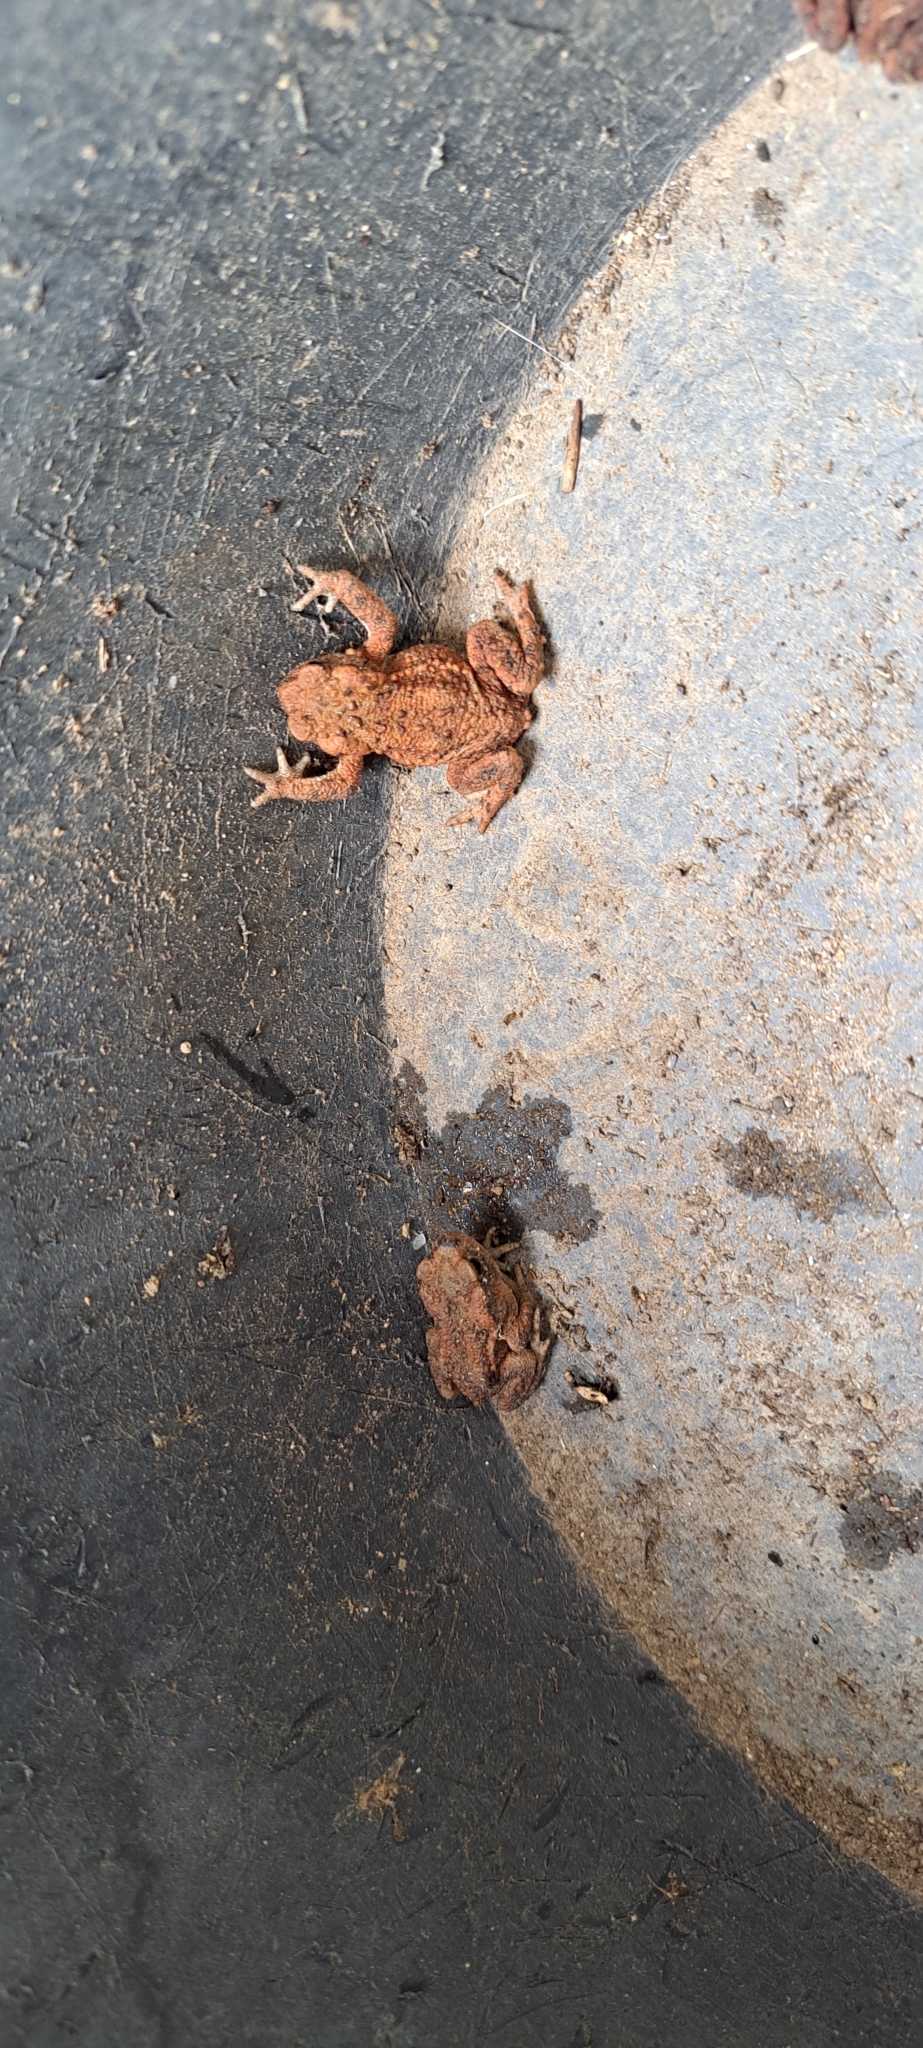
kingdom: Animalia
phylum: Chordata
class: Amphibia
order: Anura
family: Bufonidae
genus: Bufo
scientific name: Bufo bufo
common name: Common toad
